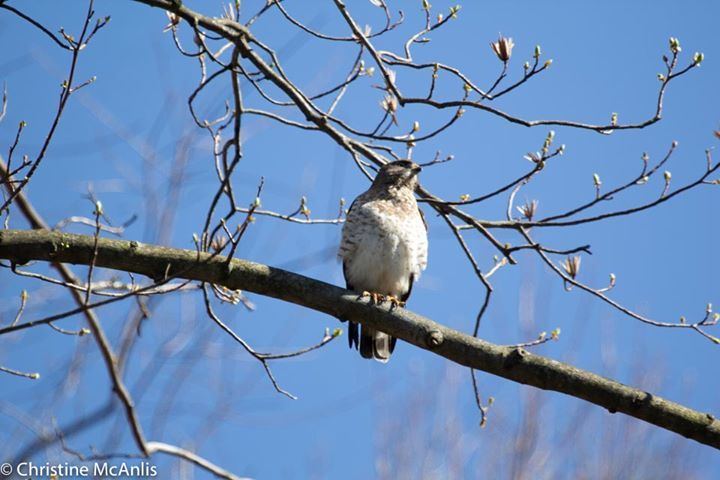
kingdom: Animalia
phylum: Chordata
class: Aves
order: Accipitriformes
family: Accipitridae
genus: Buteo
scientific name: Buteo platypterus
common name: Broad-winged hawk
